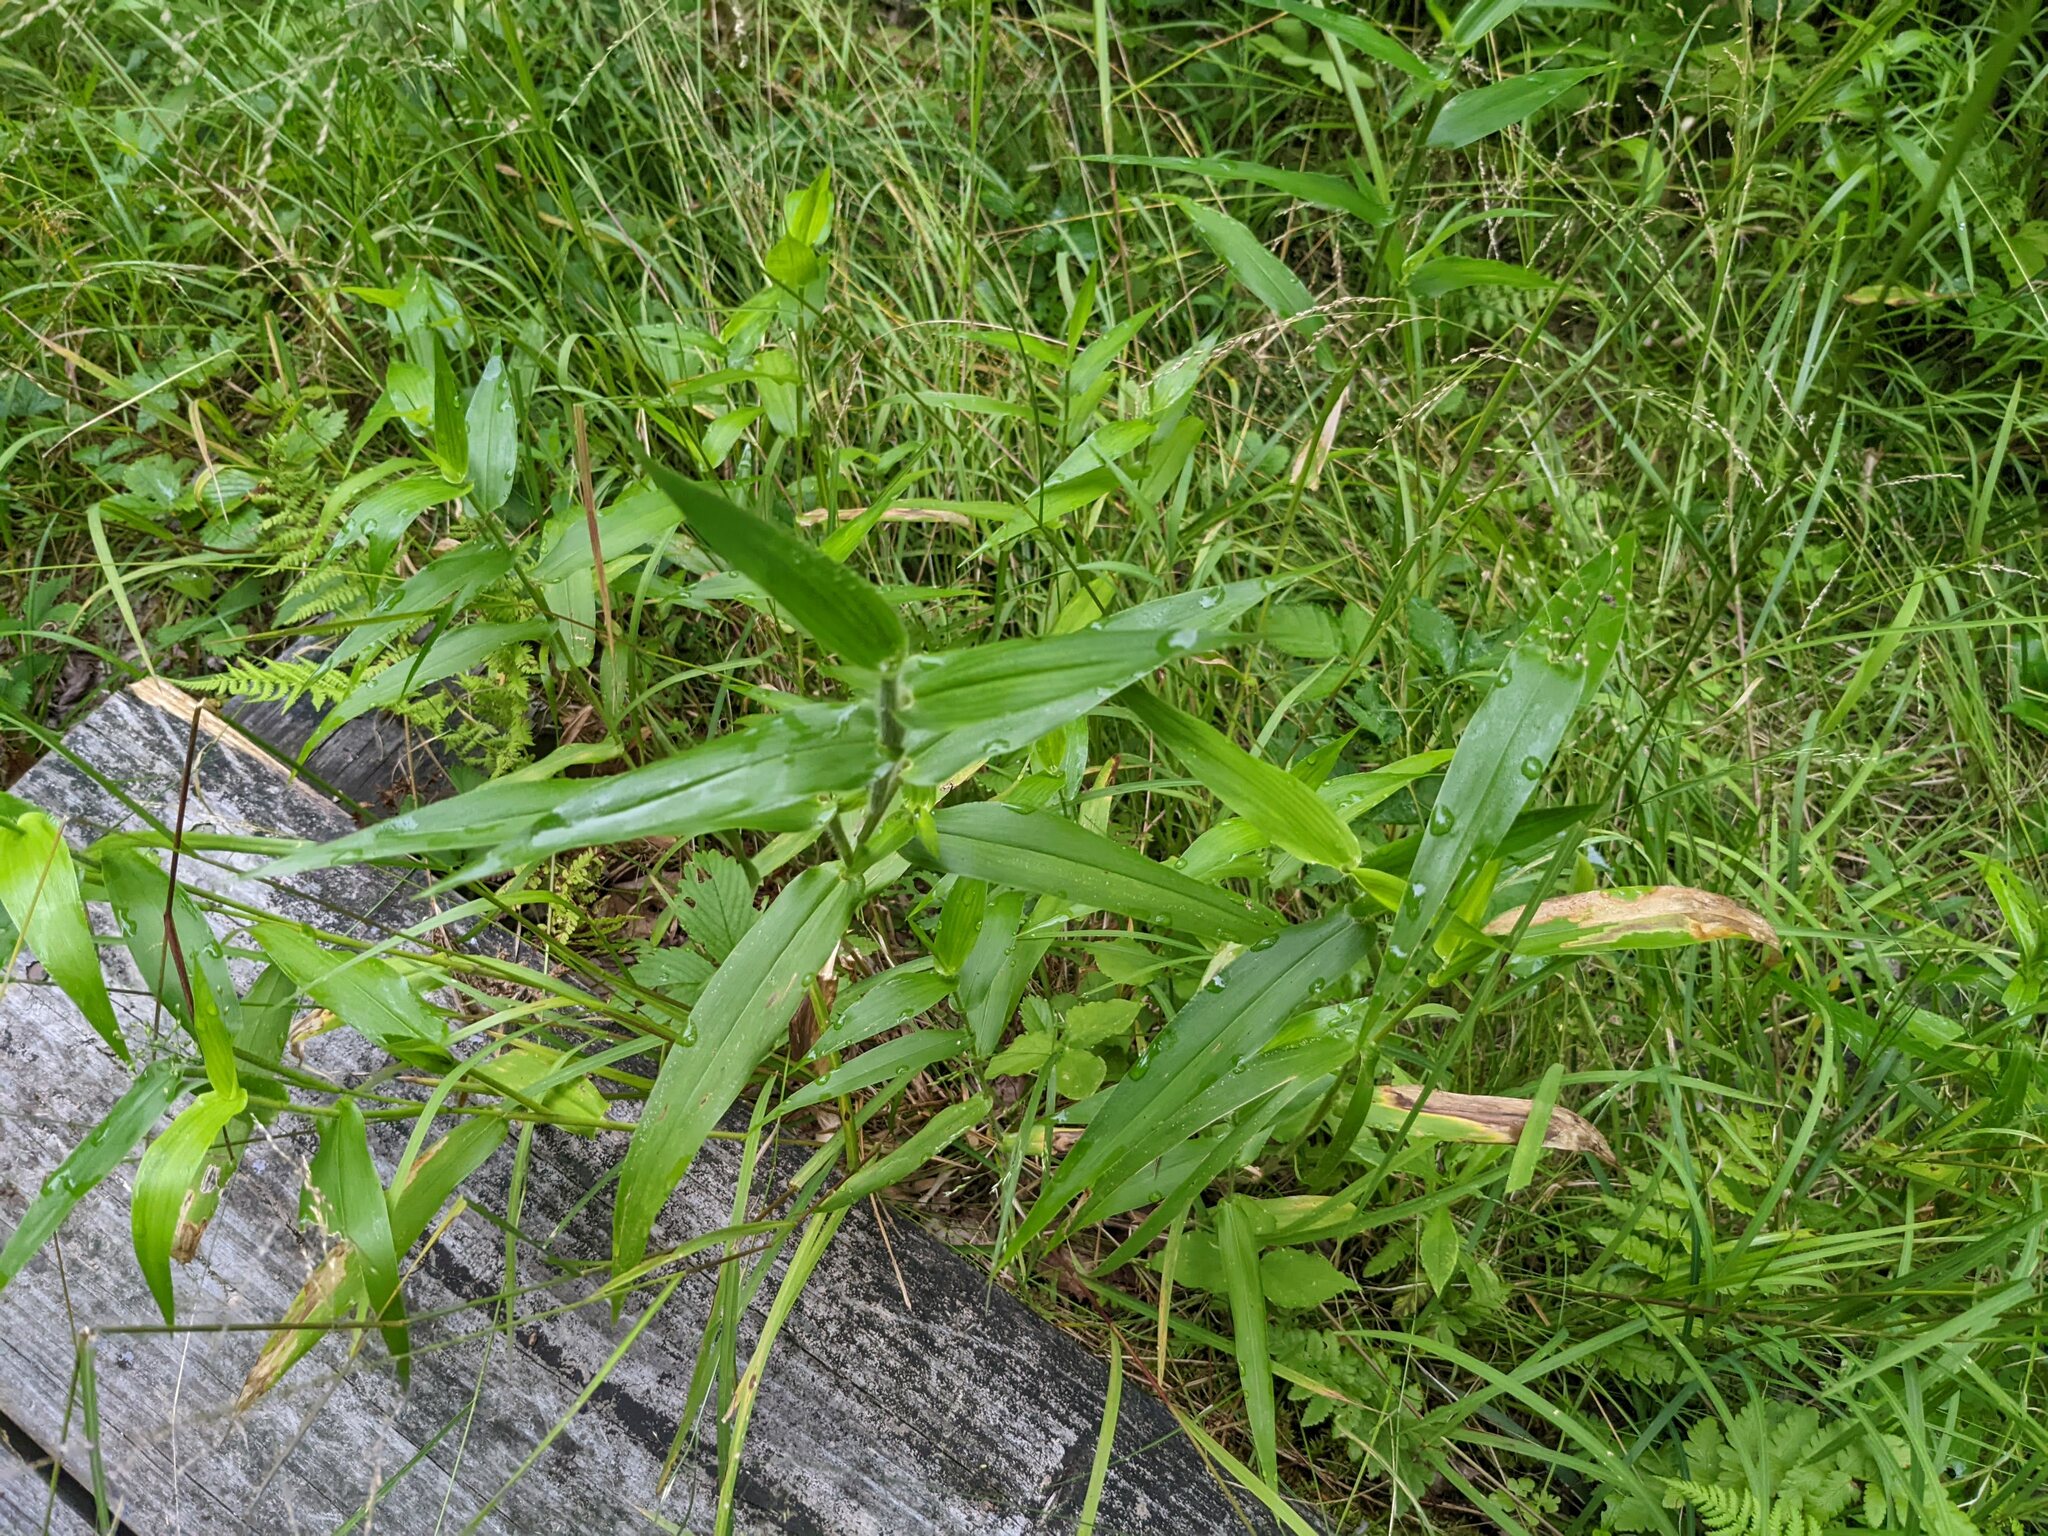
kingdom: Plantae
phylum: Tracheophyta
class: Liliopsida
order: Poales
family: Poaceae
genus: Dichanthelium
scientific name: Dichanthelium clandestinum
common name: Deer-tongue grass
